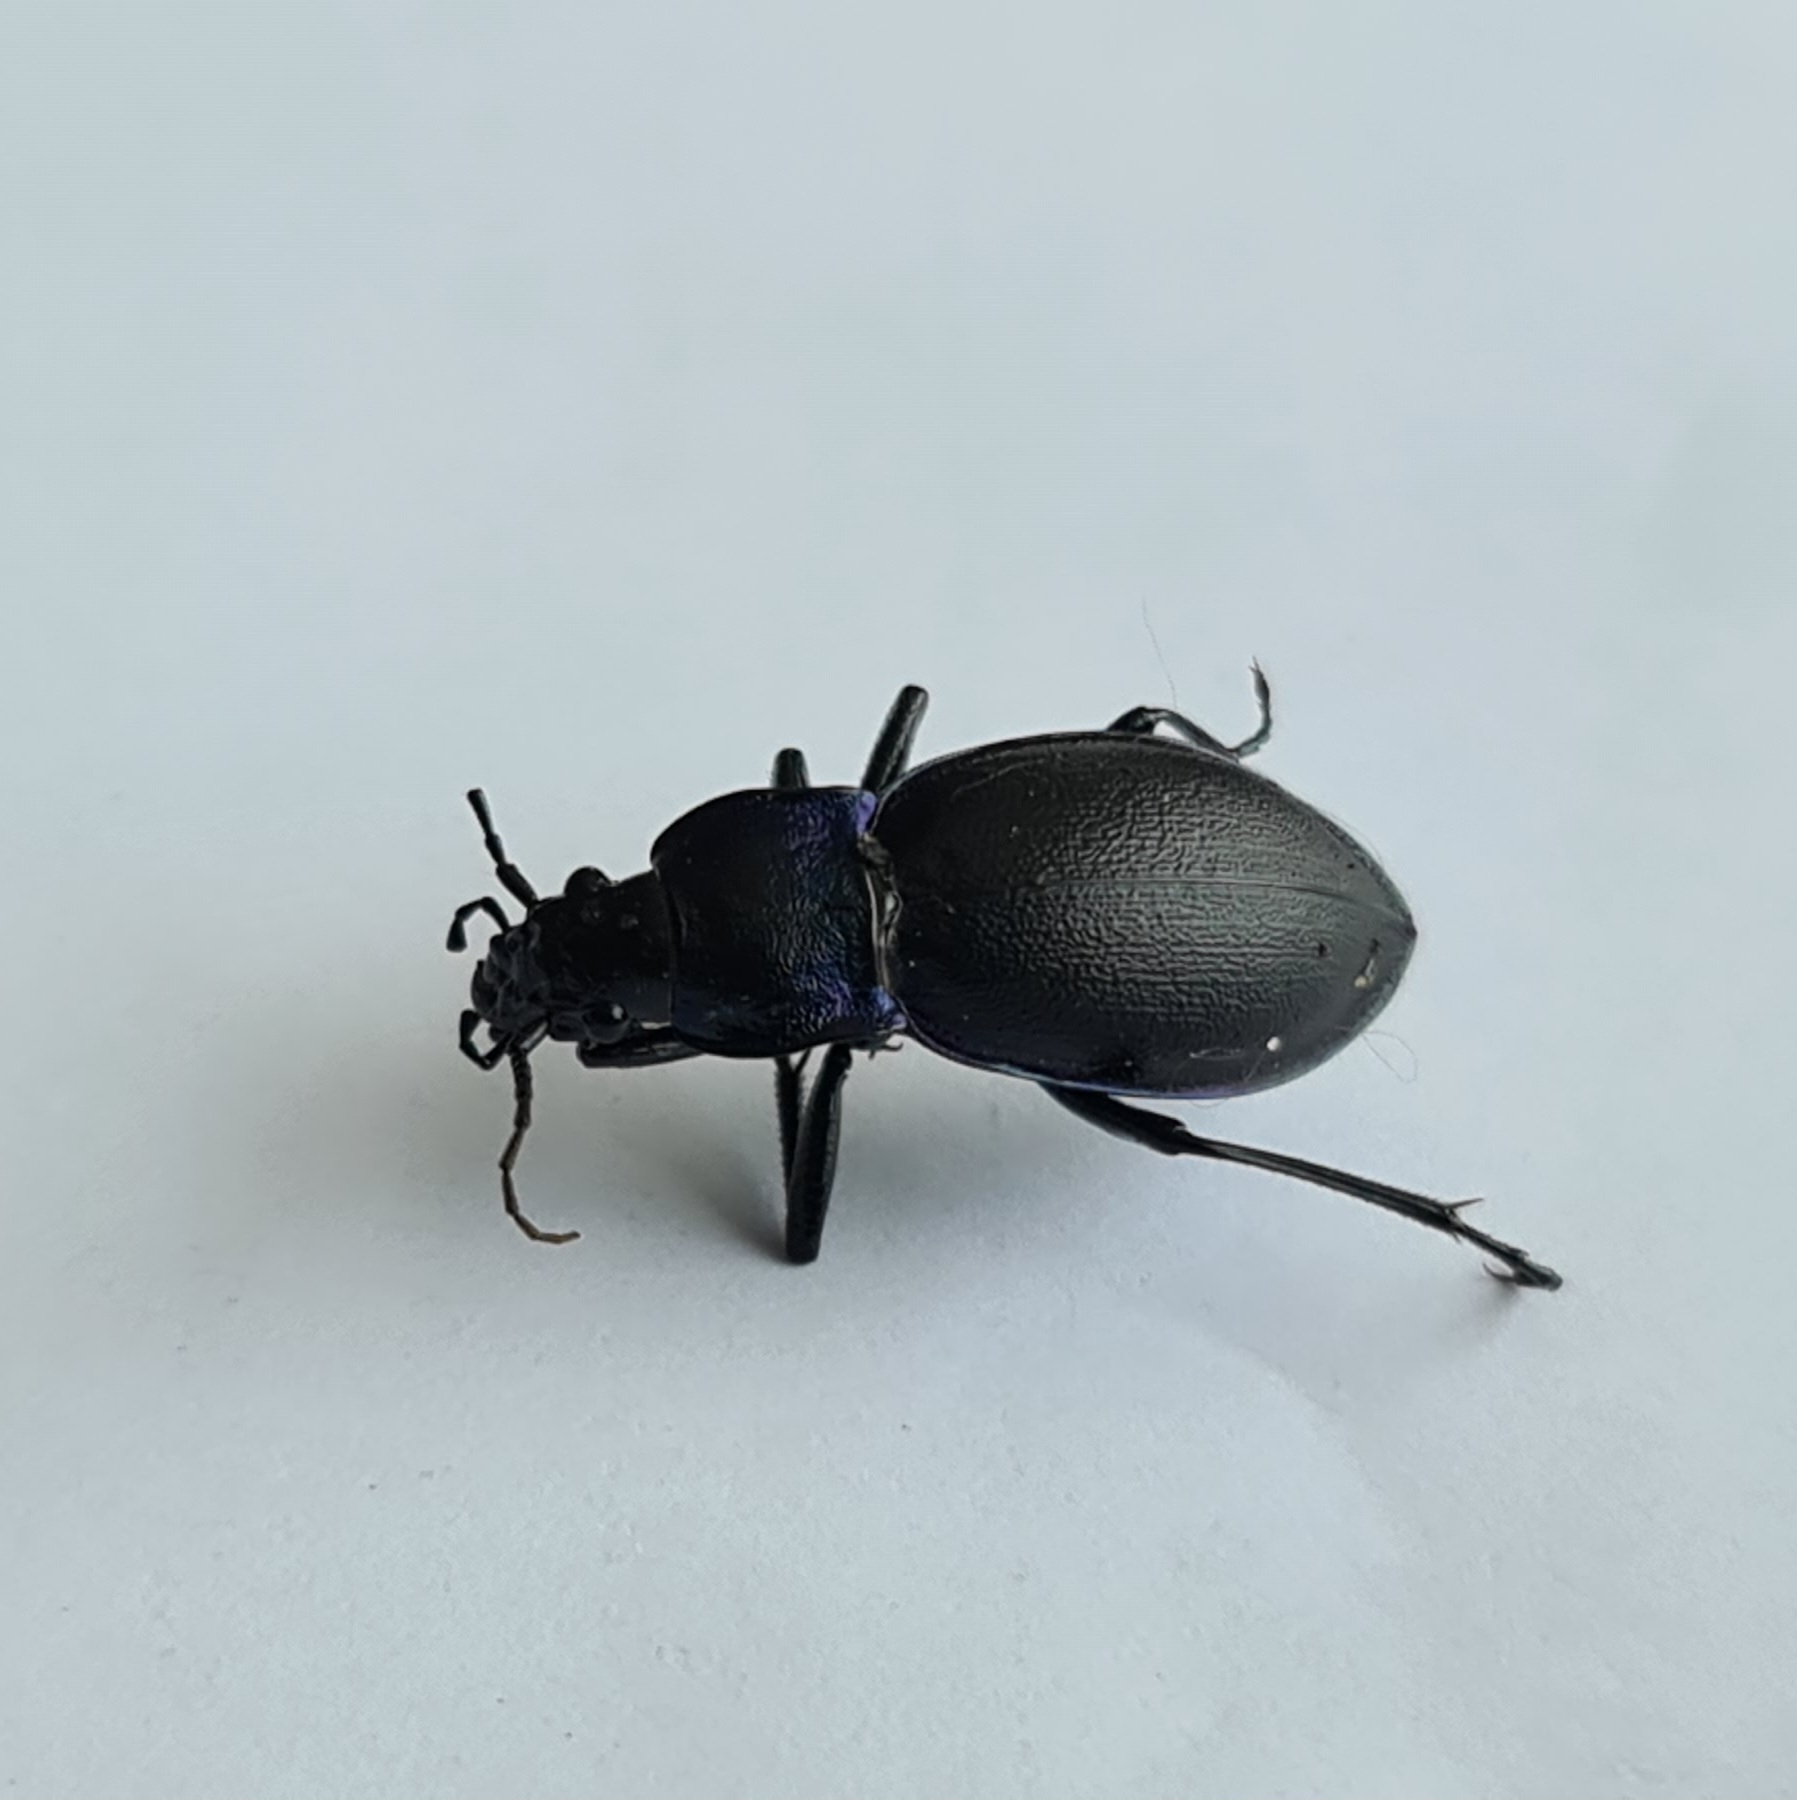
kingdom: Animalia
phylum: Arthropoda
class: Insecta
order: Coleoptera
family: Carabidae
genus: Carabus
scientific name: Carabus violaceus
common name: Violet ground beetle
